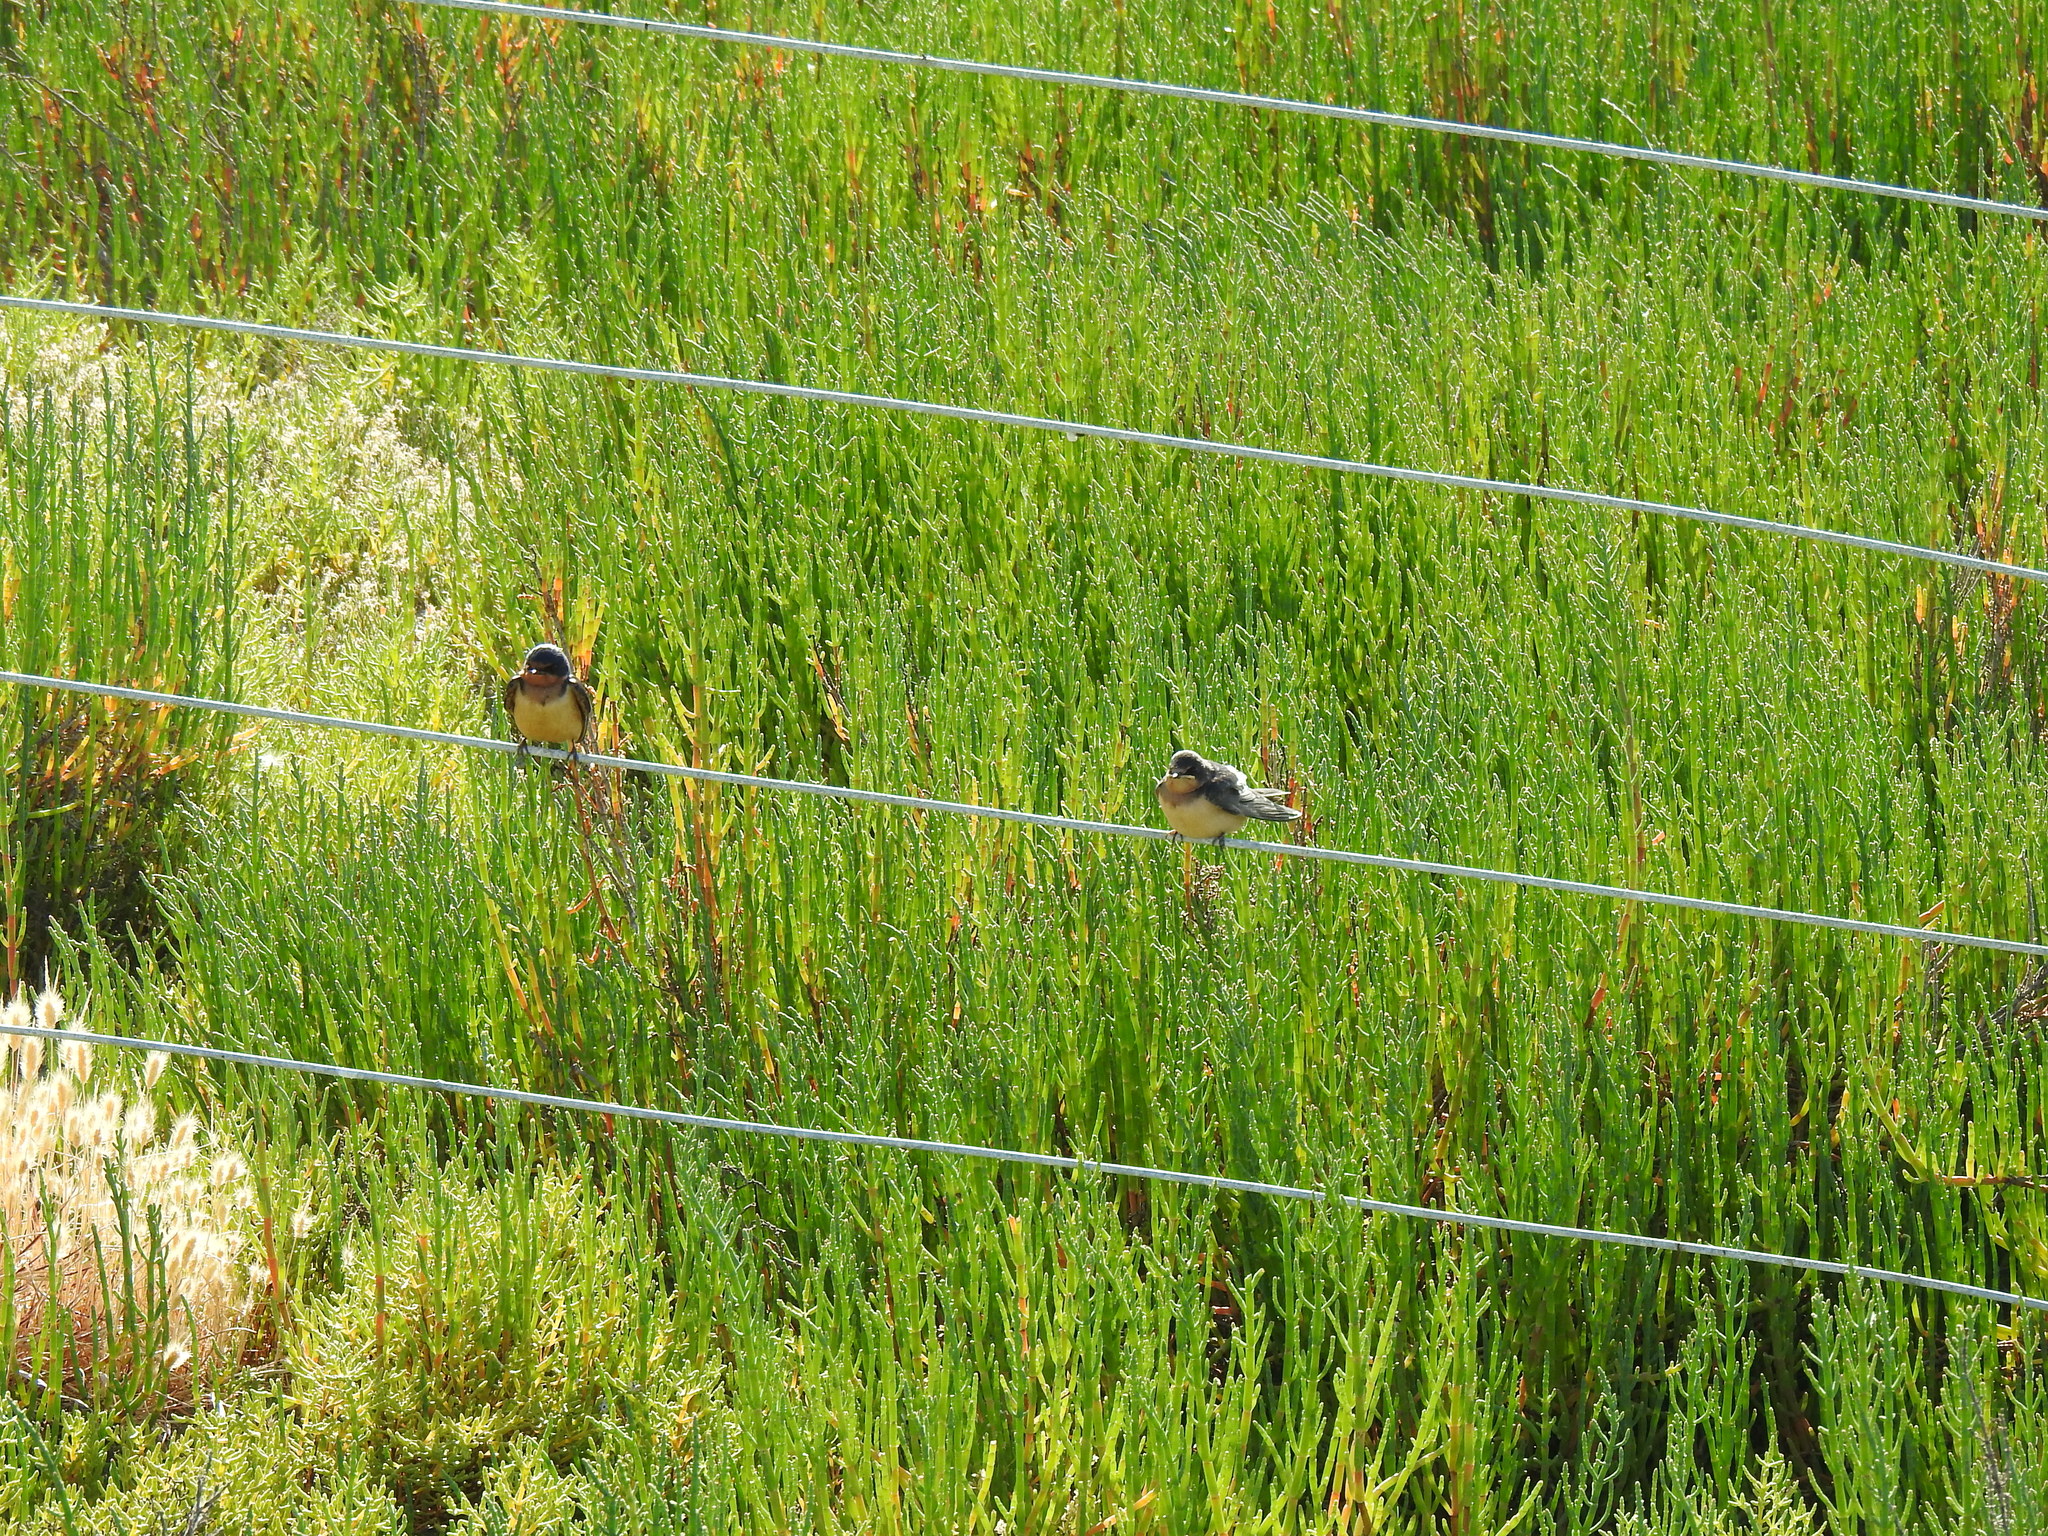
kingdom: Animalia
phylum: Chordata
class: Aves
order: Passeriformes
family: Hirundinidae
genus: Hirundo
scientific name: Hirundo rustica
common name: Barn swallow
